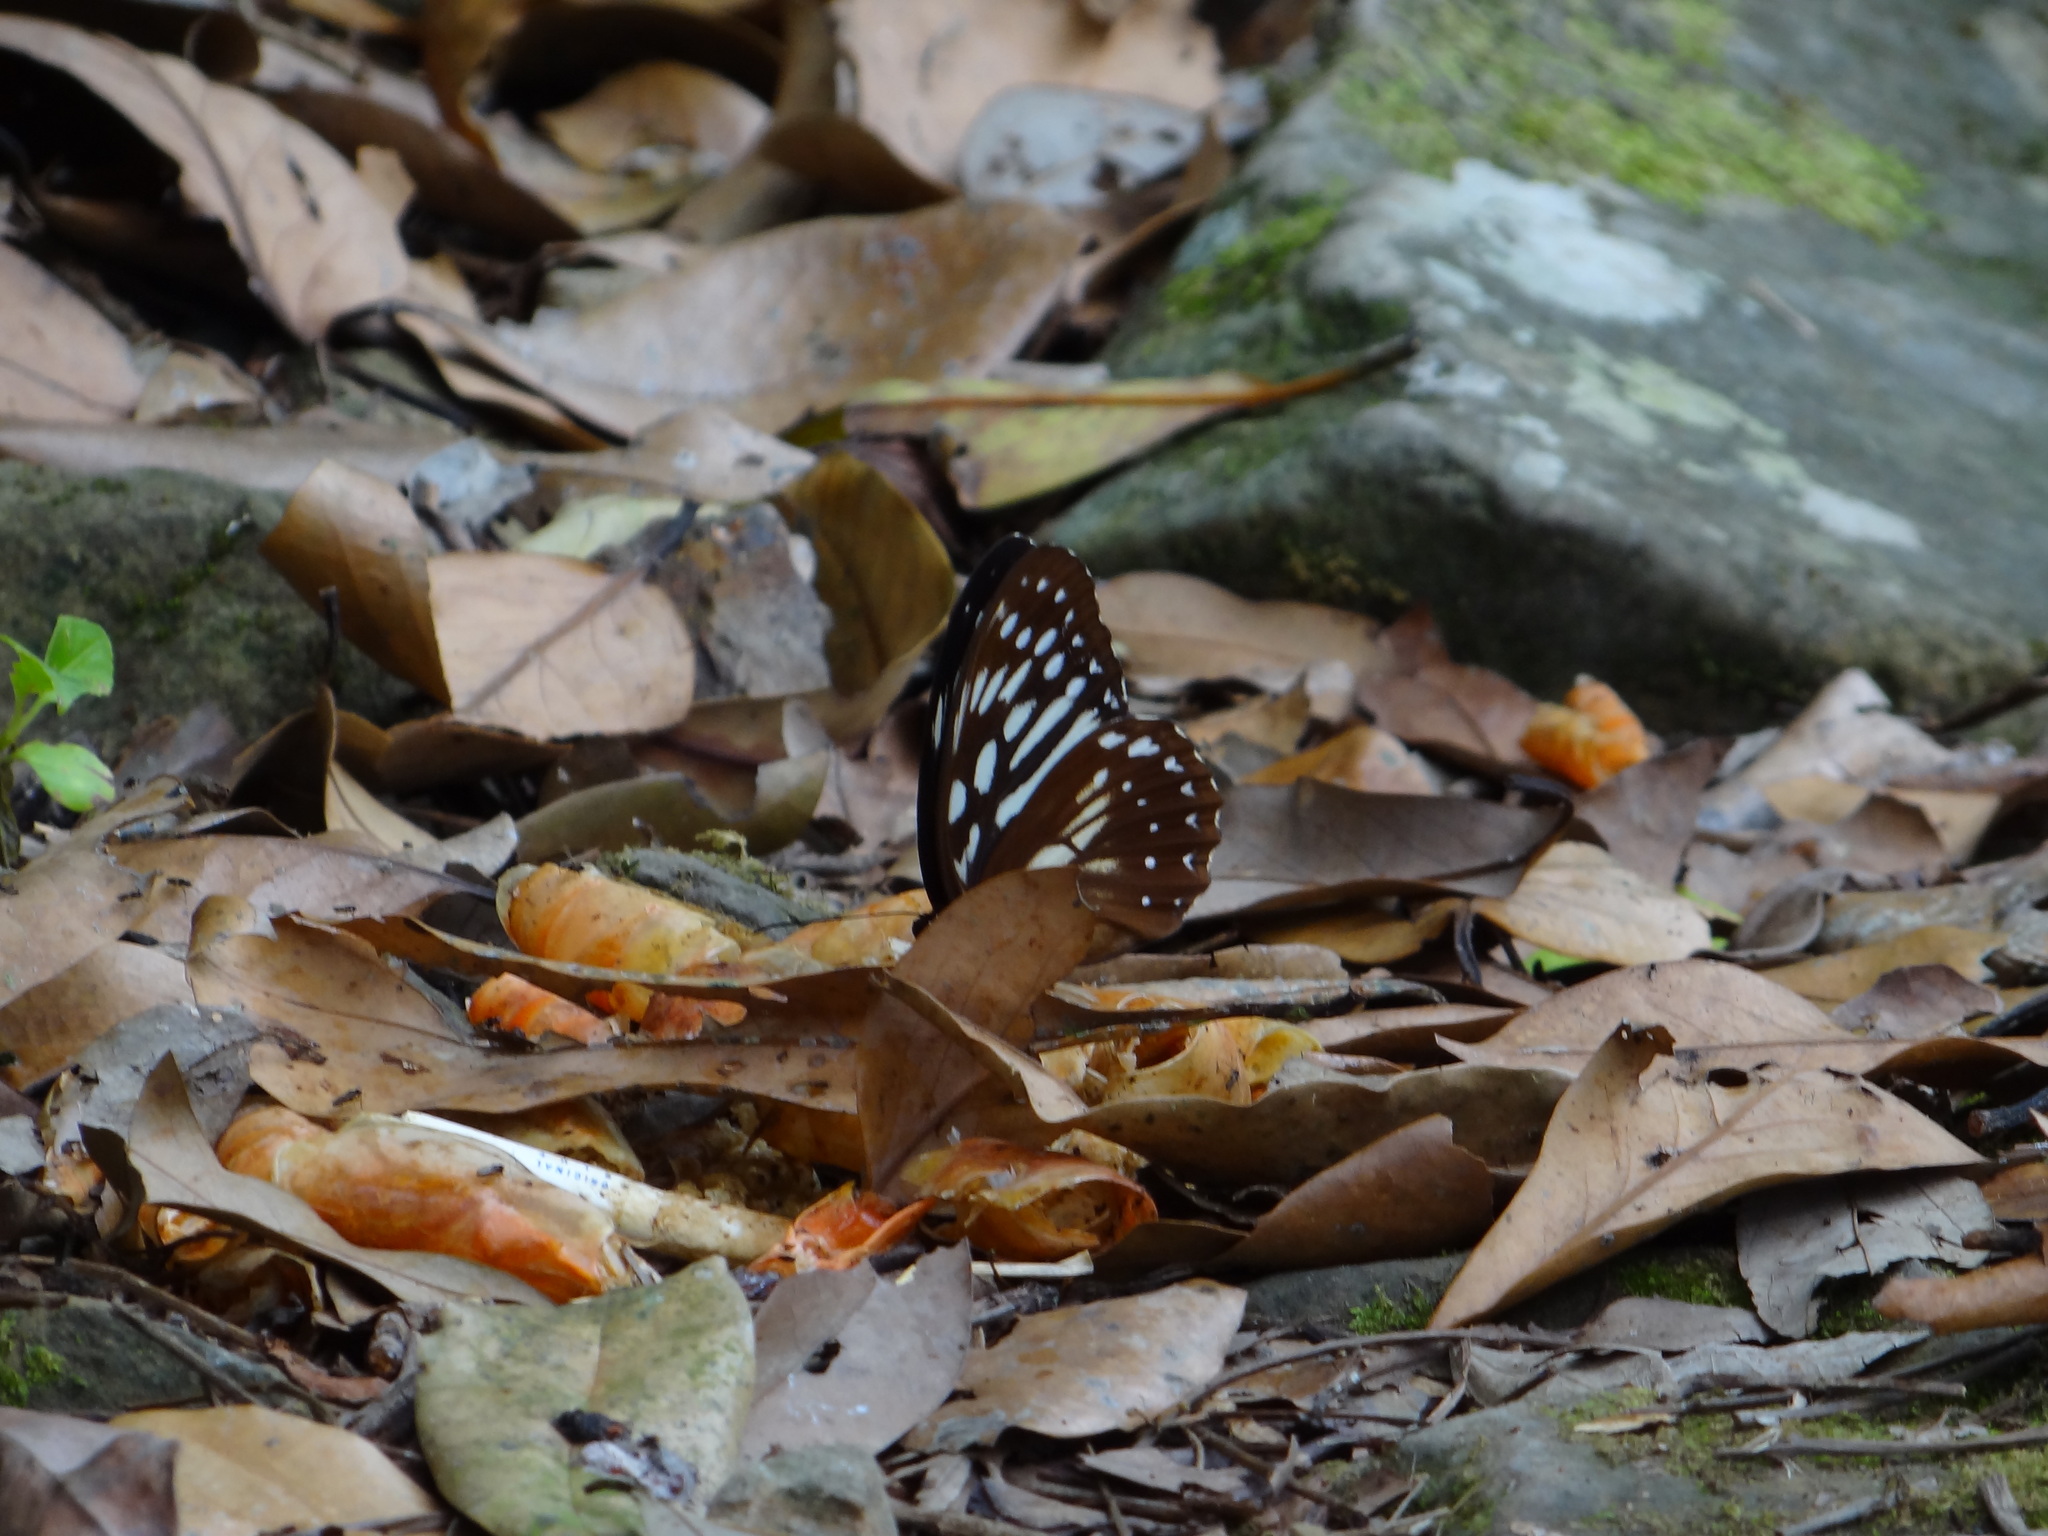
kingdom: Animalia
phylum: Arthropoda
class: Insecta
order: Lepidoptera
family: Nymphalidae
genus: Penthema
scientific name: Penthema formosanum
